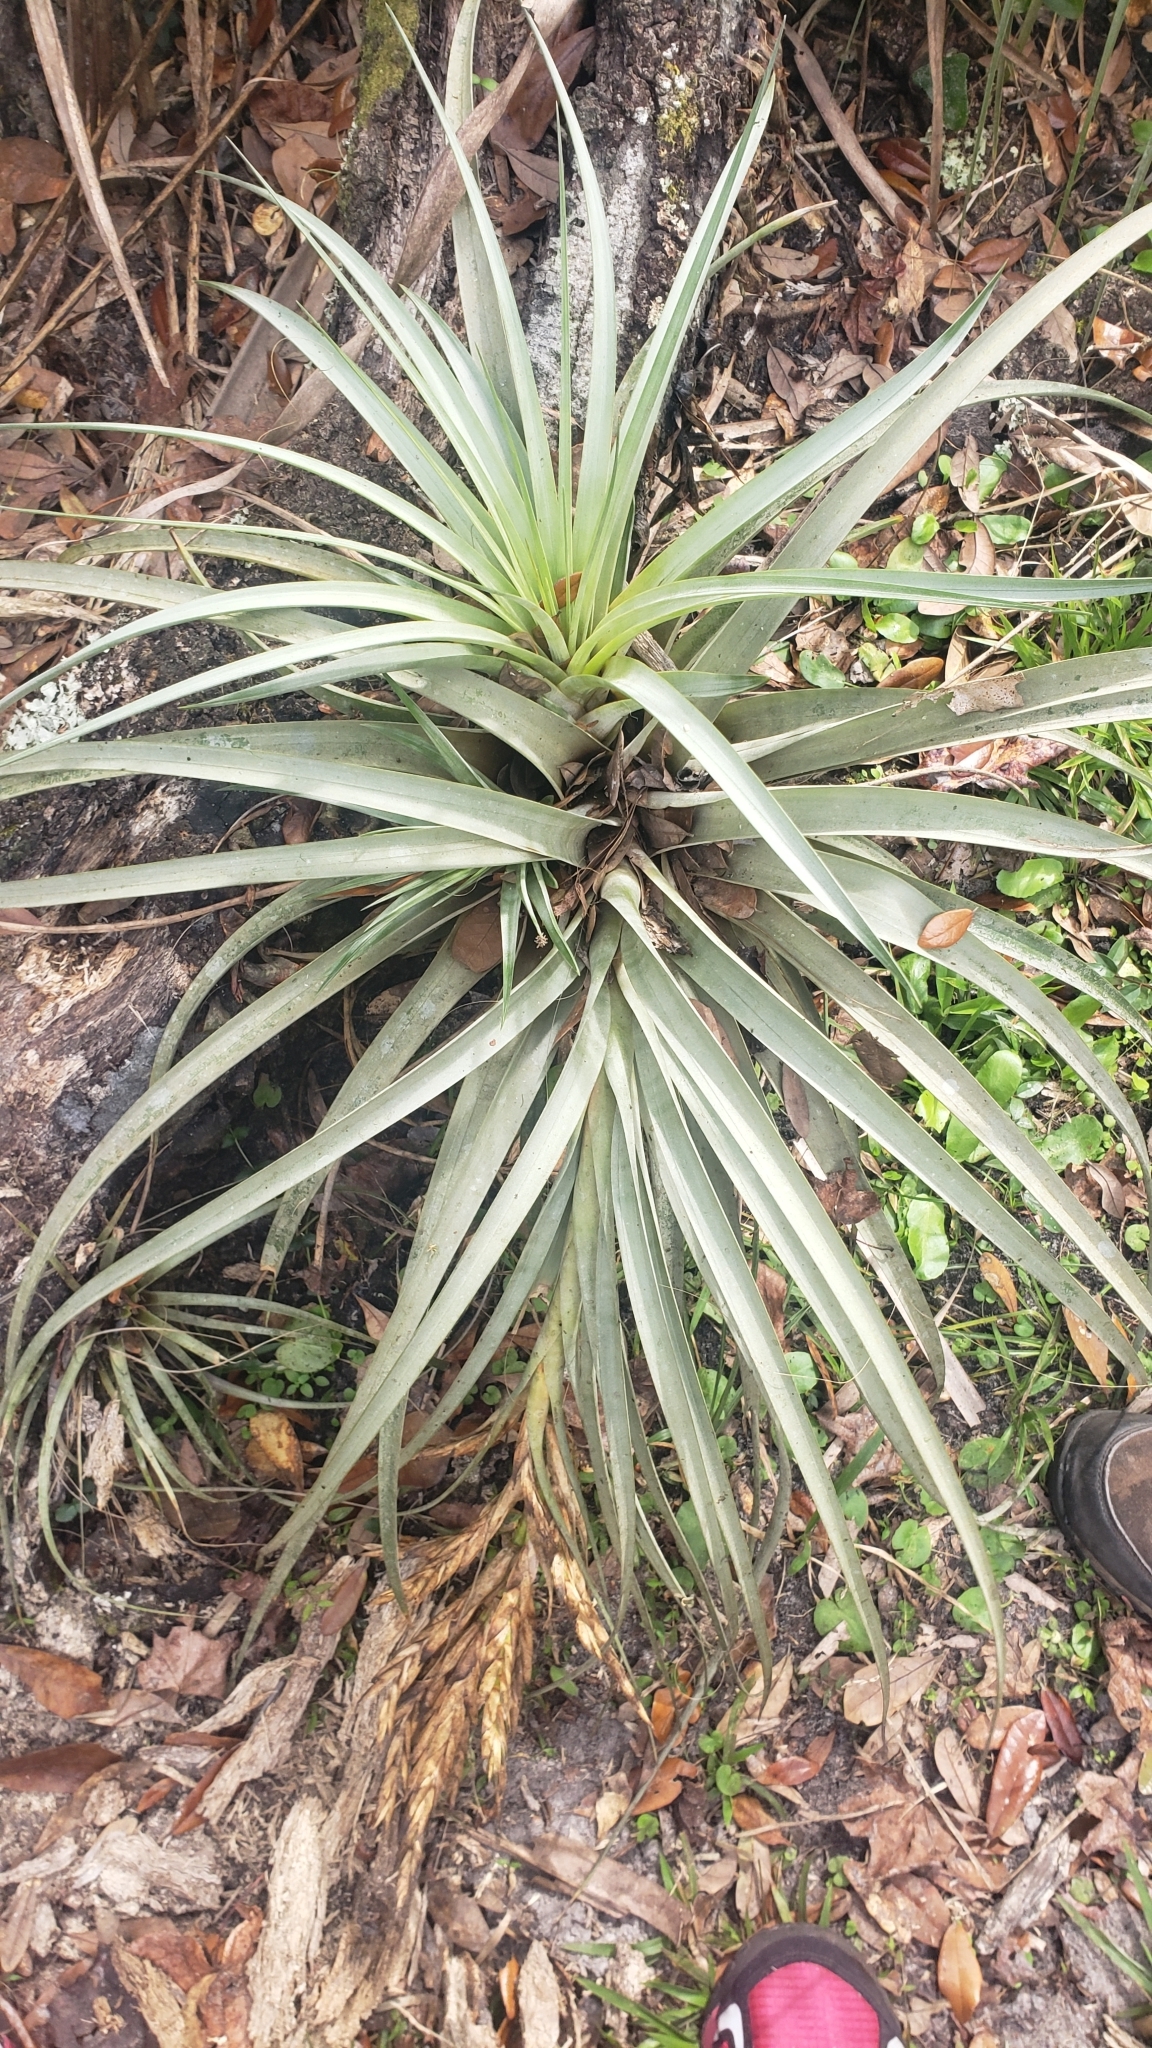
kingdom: Plantae
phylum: Tracheophyta
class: Liliopsida
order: Poales
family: Bromeliaceae
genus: Tillandsia
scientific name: Tillandsia fasciculata
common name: Giant airplant
